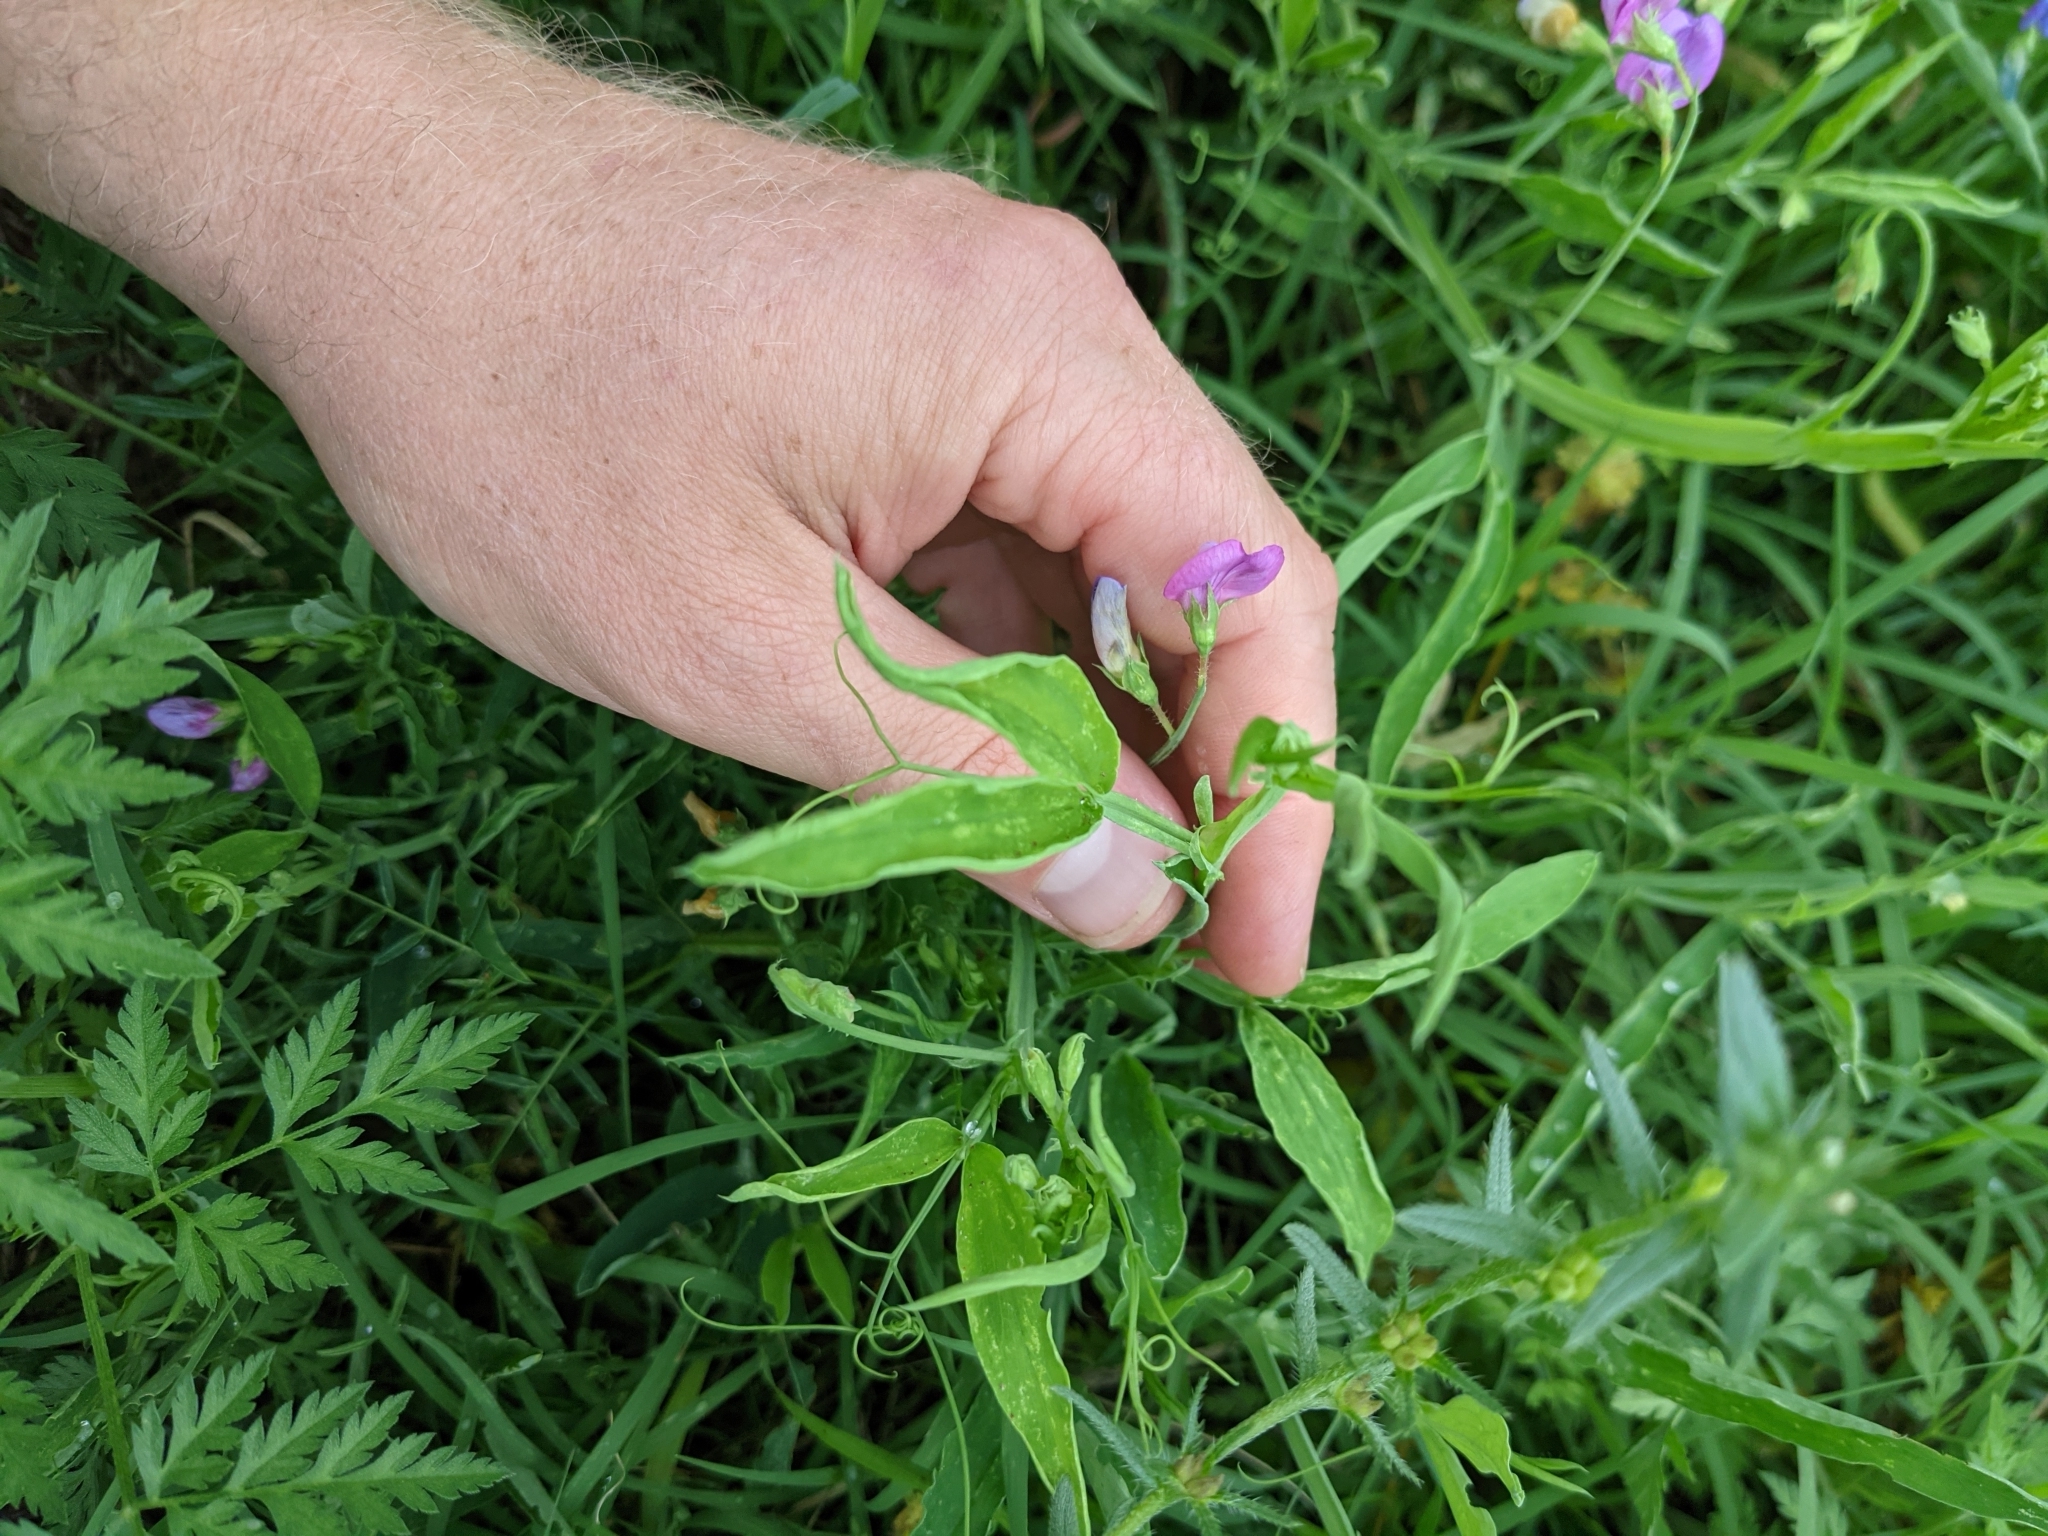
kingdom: Plantae
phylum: Tracheophyta
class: Magnoliopsida
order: Fabales
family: Fabaceae
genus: Lathyrus
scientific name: Lathyrus hirsutus
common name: Hairy vetchling
